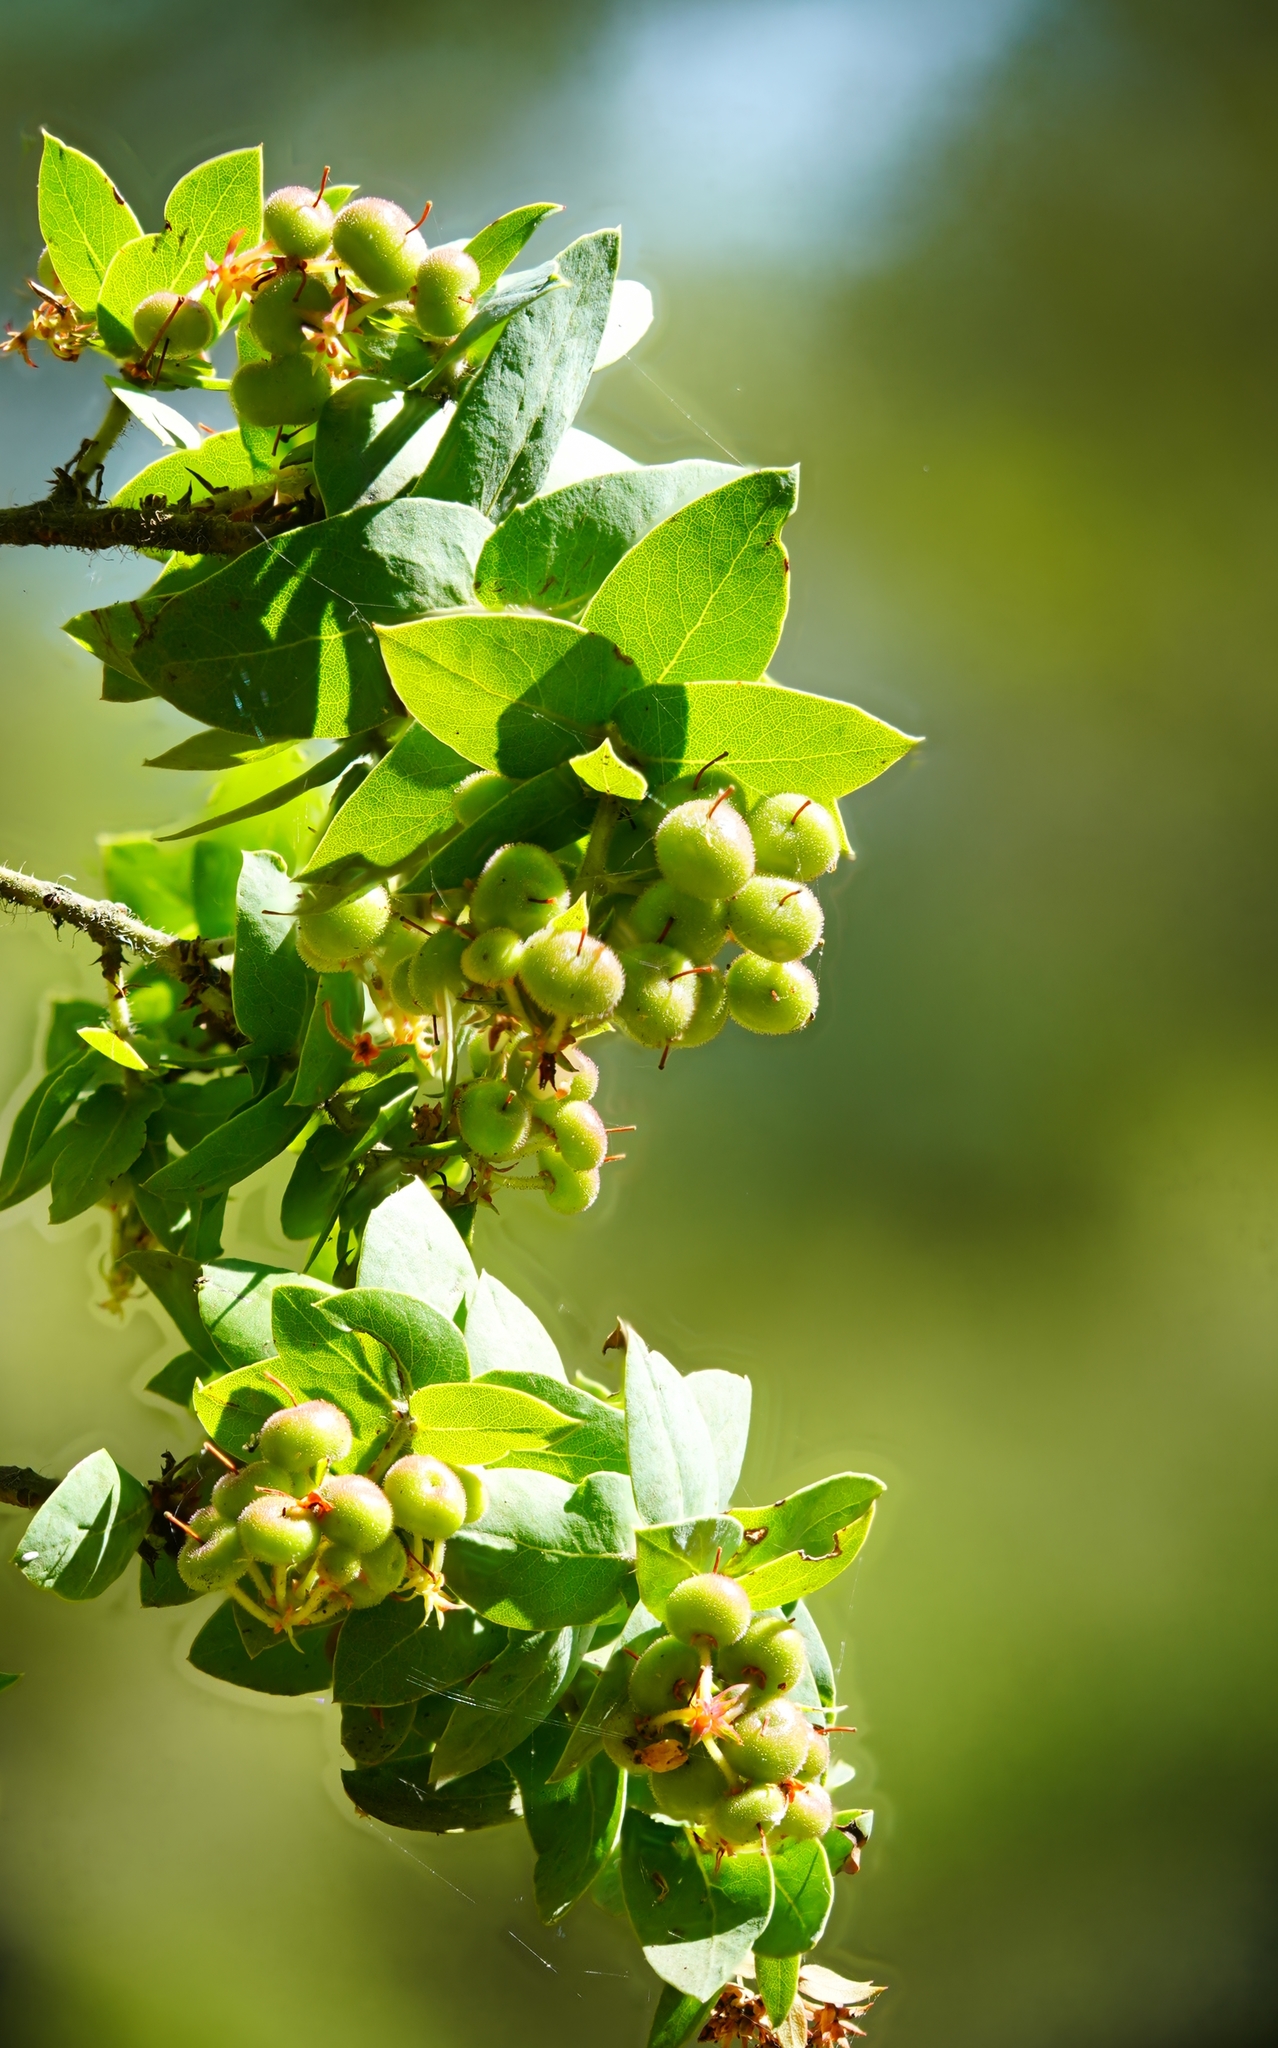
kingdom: Plantae
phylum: Tracheophyta
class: Magnoliopsida
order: Ericales
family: Ericaceae
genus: Arctostaphylos
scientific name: Arctostaphylos pallida
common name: Pallid manzanita
